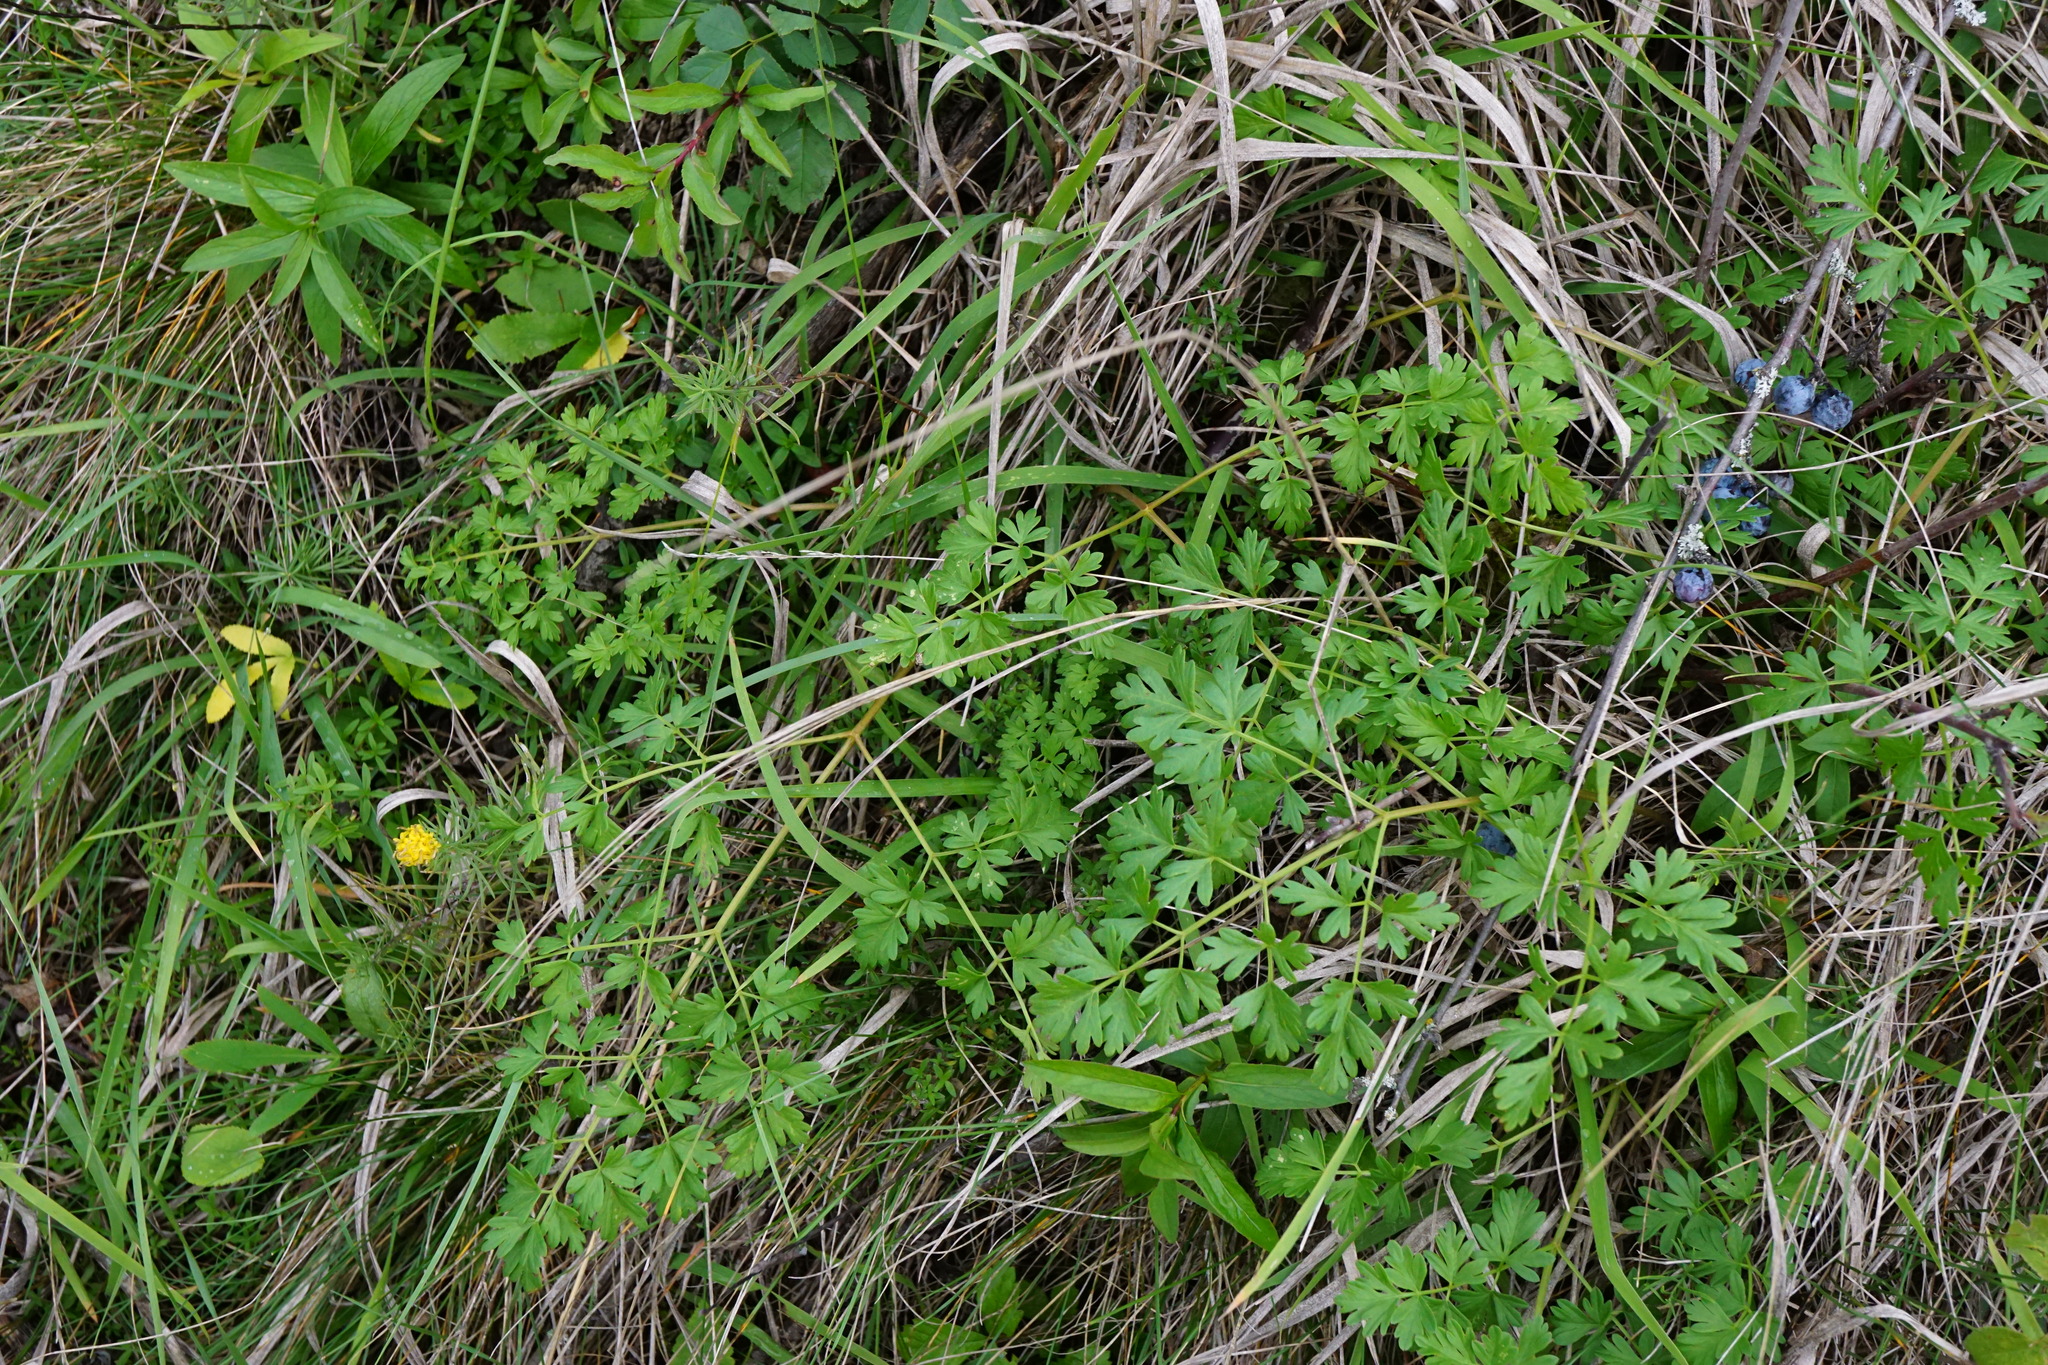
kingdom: Plantae
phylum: Tracheophyta
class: Magnoliopsida
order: Apiales
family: Apiaceae
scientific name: Apiaceae
